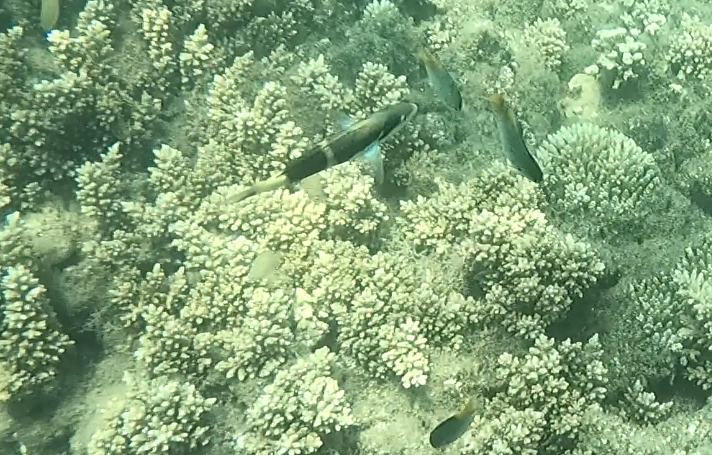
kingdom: Animalia
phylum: Chordata
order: Perciformes
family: Labridae
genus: Thalassoma
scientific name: Thalassoma nigrofasciatum
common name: Black-barred wrasse
